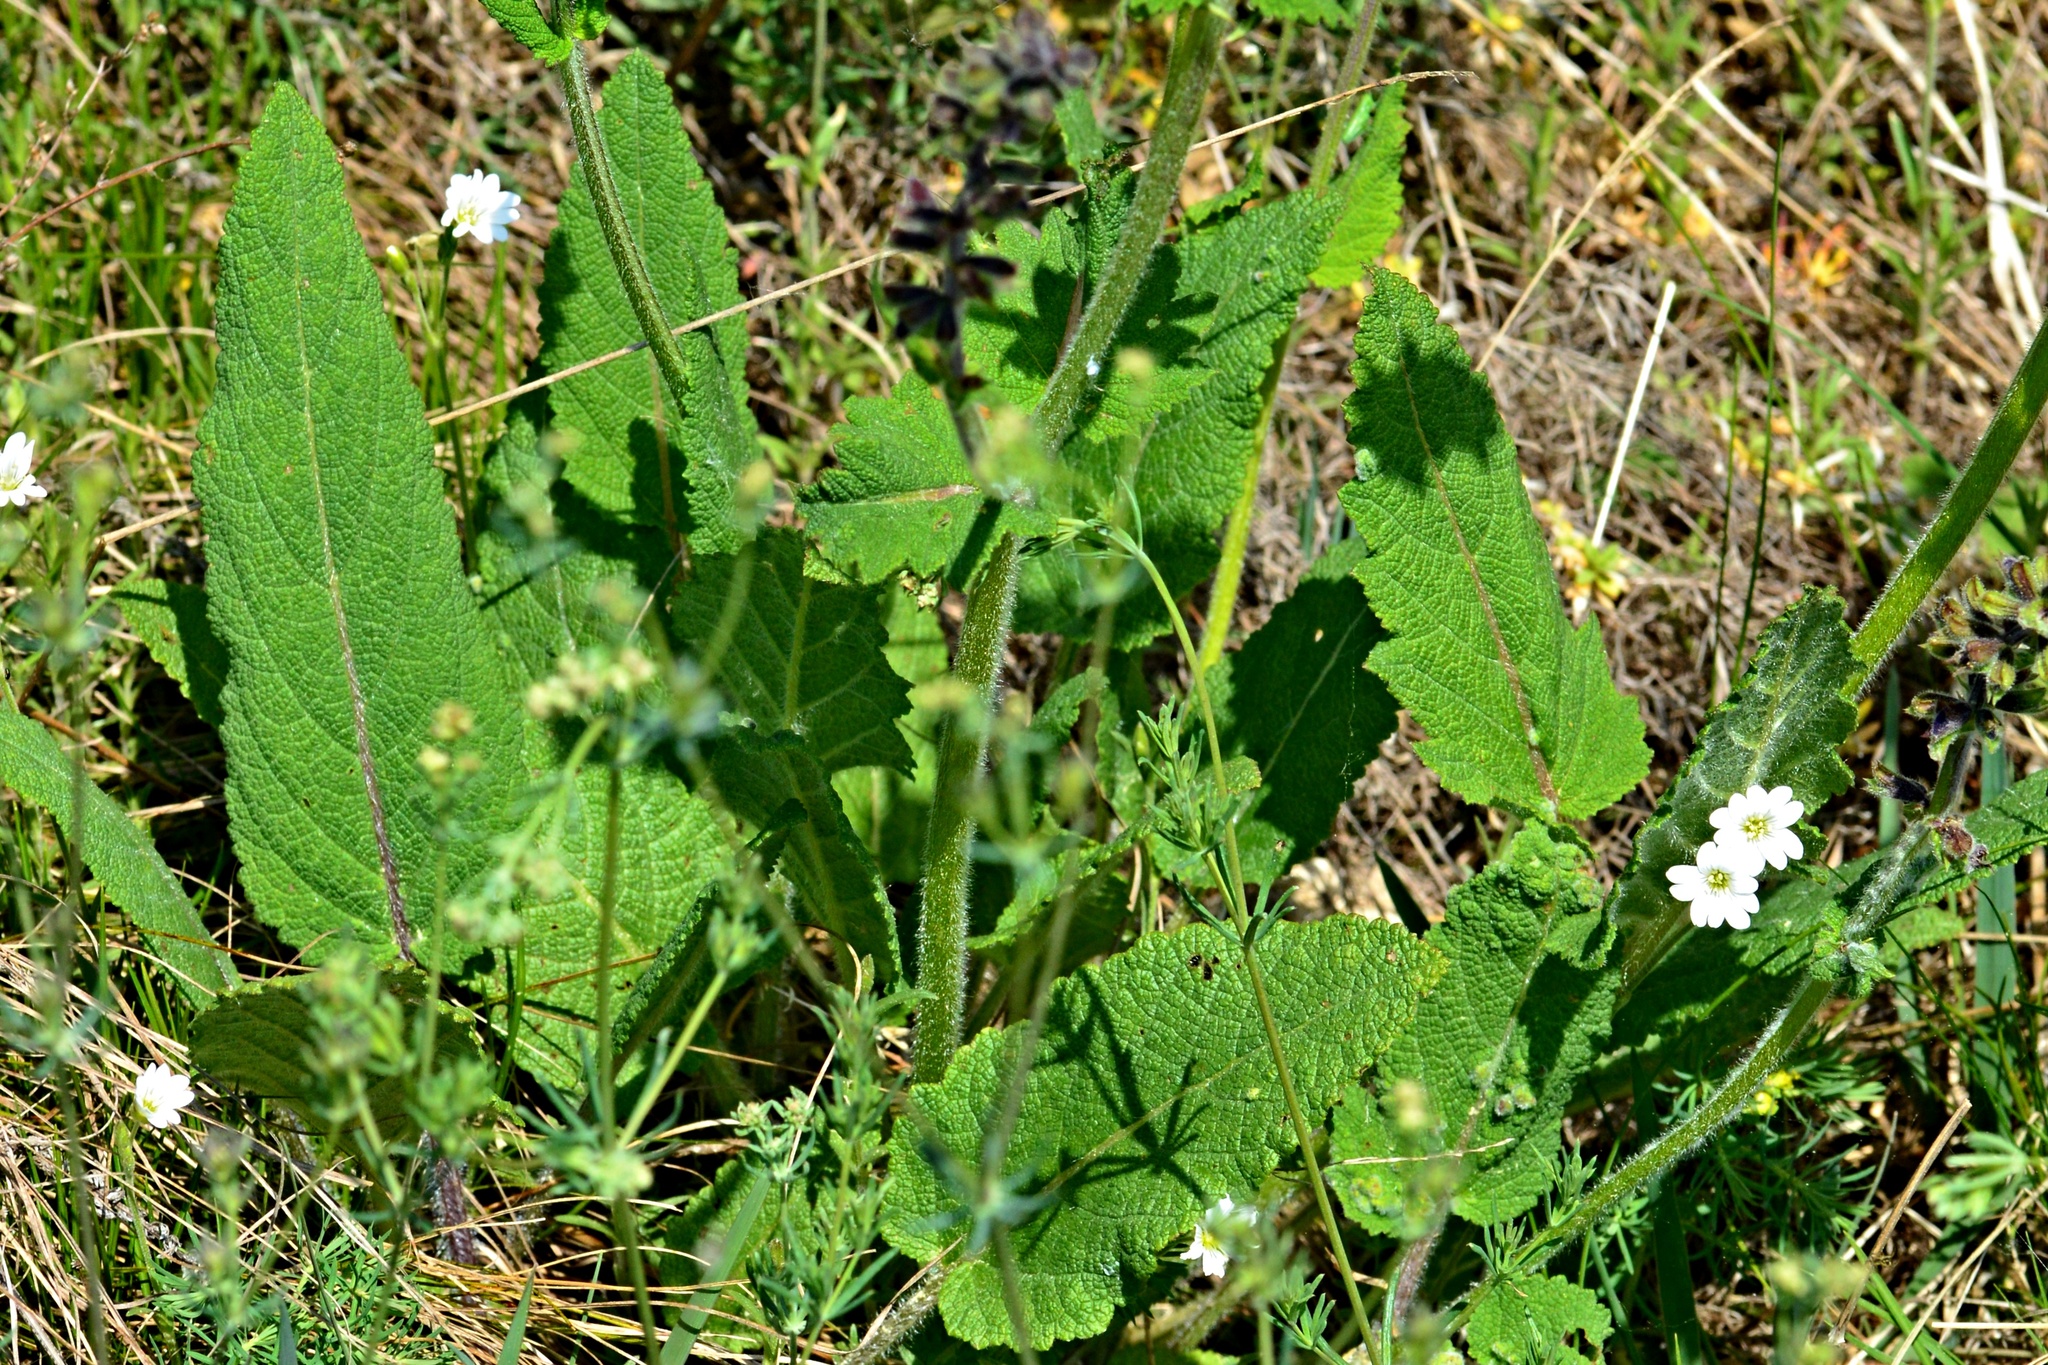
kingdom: Plantae
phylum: Tracheophyta
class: Magnoliopsida
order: Lamiales
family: Lamiaceae
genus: Salvia
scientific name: Salvia pratensis
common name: Meadow sage
